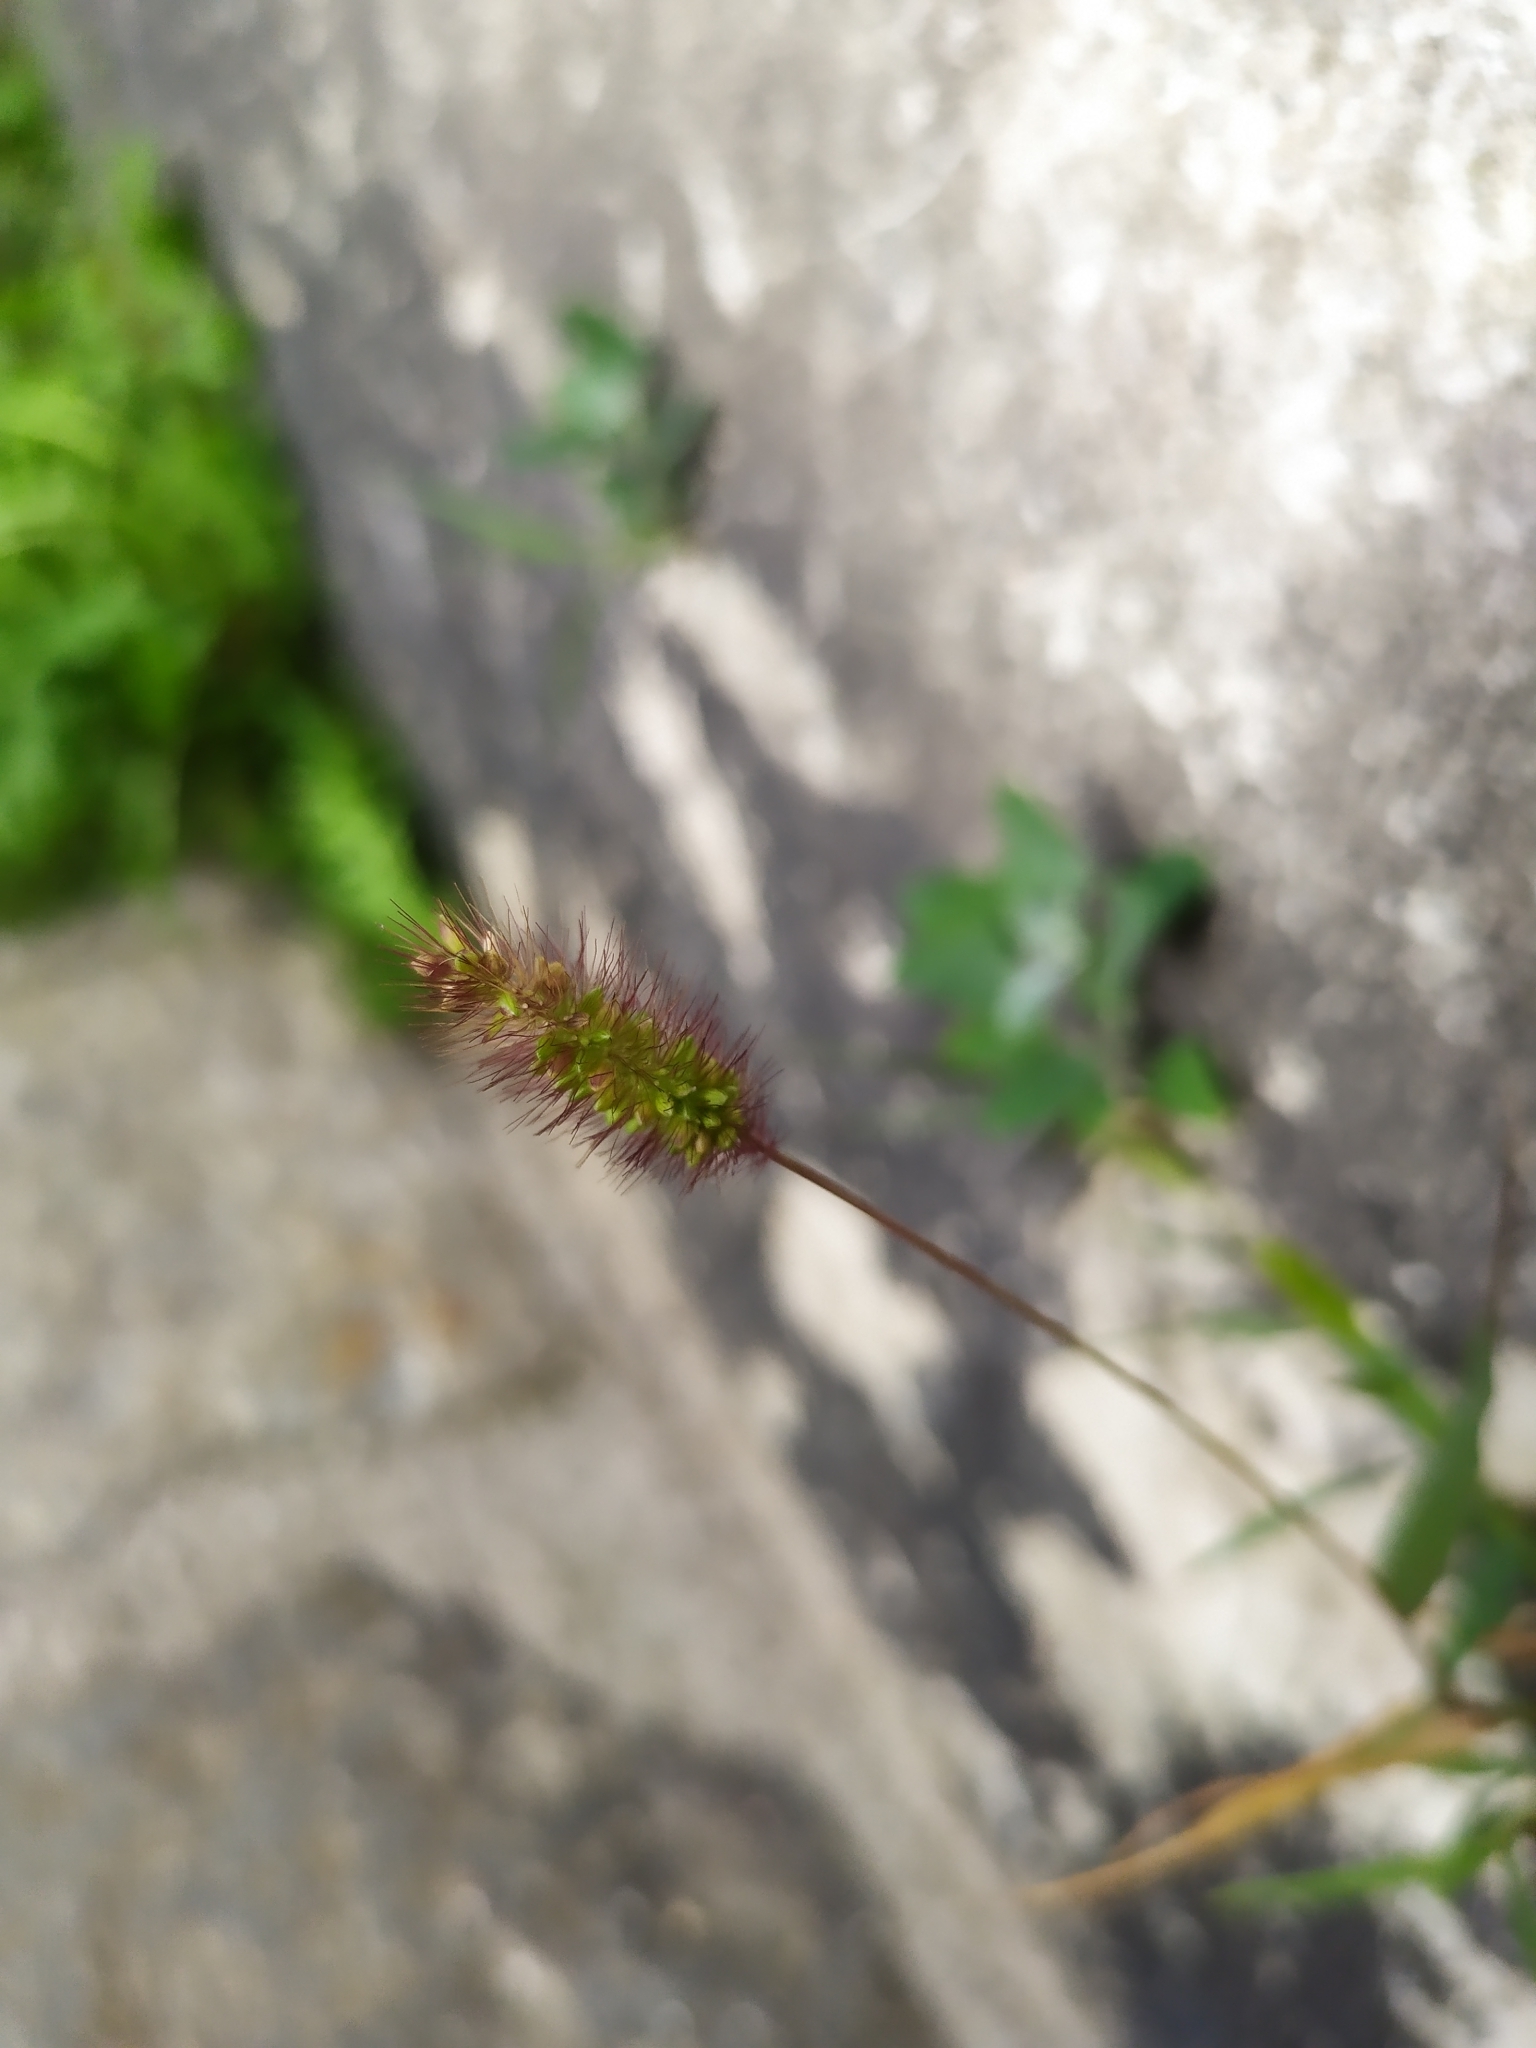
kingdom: Plantae
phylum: Tracheophyta
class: Liliopsida
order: Poales
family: Poaceae
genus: Setaria
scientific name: Setaria viridis
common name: Green bristlegrass
